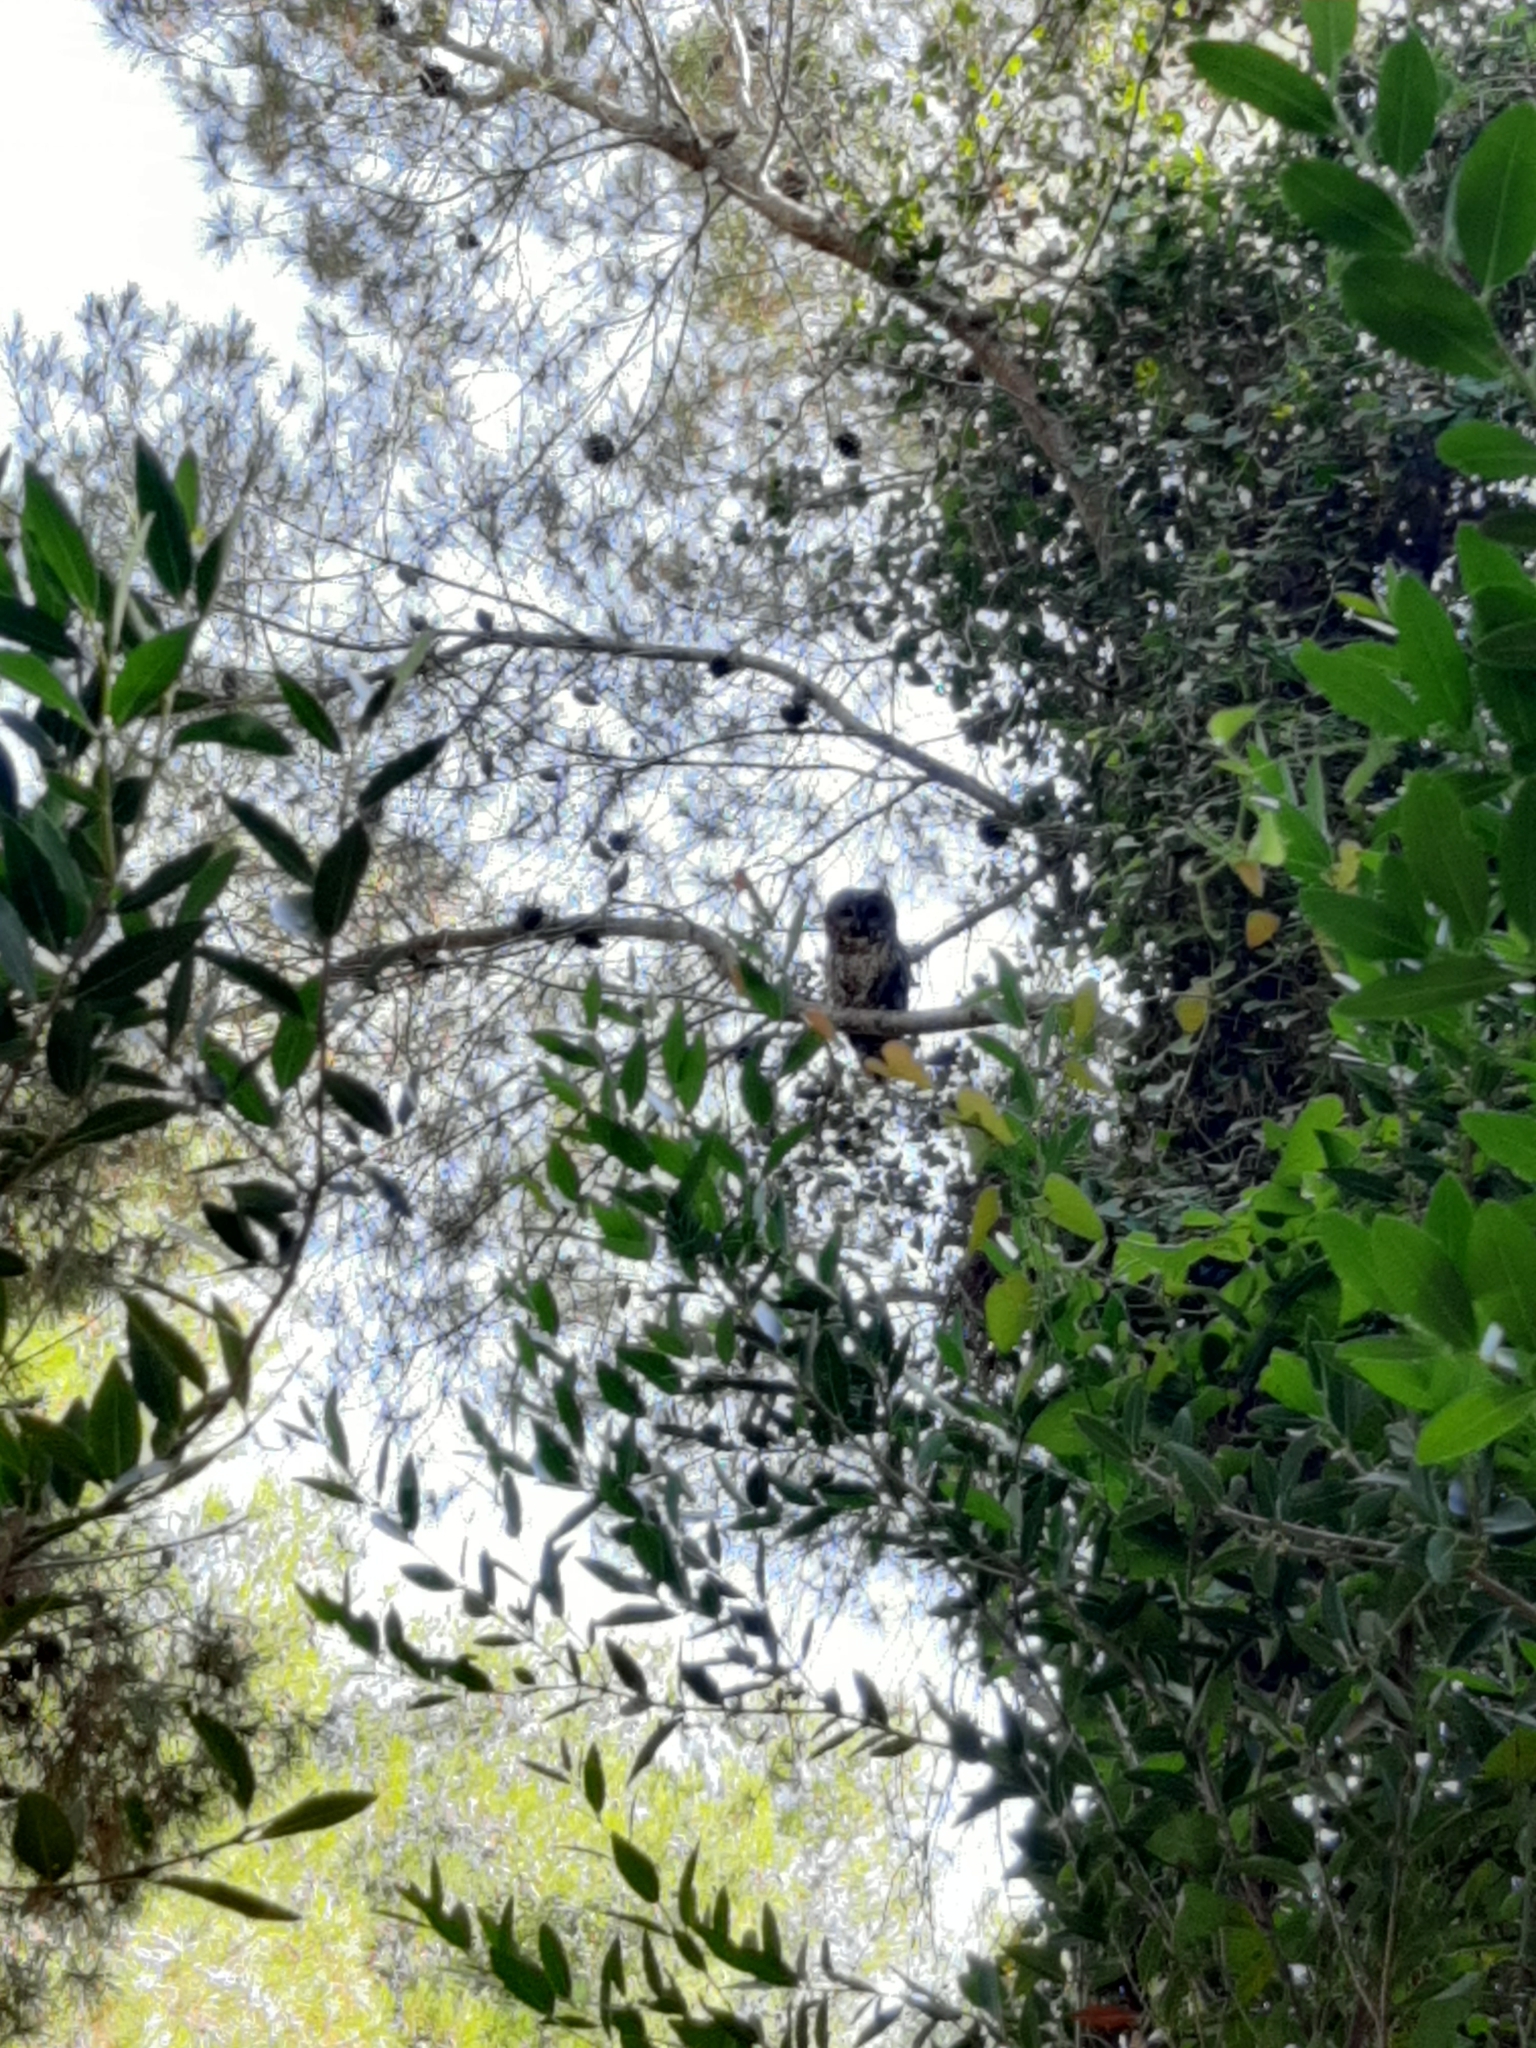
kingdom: Animalia
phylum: Chordata
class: Aves
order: Strigiformes
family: Strigidae
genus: Strix
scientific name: Strix aluco
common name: Tawny owl
